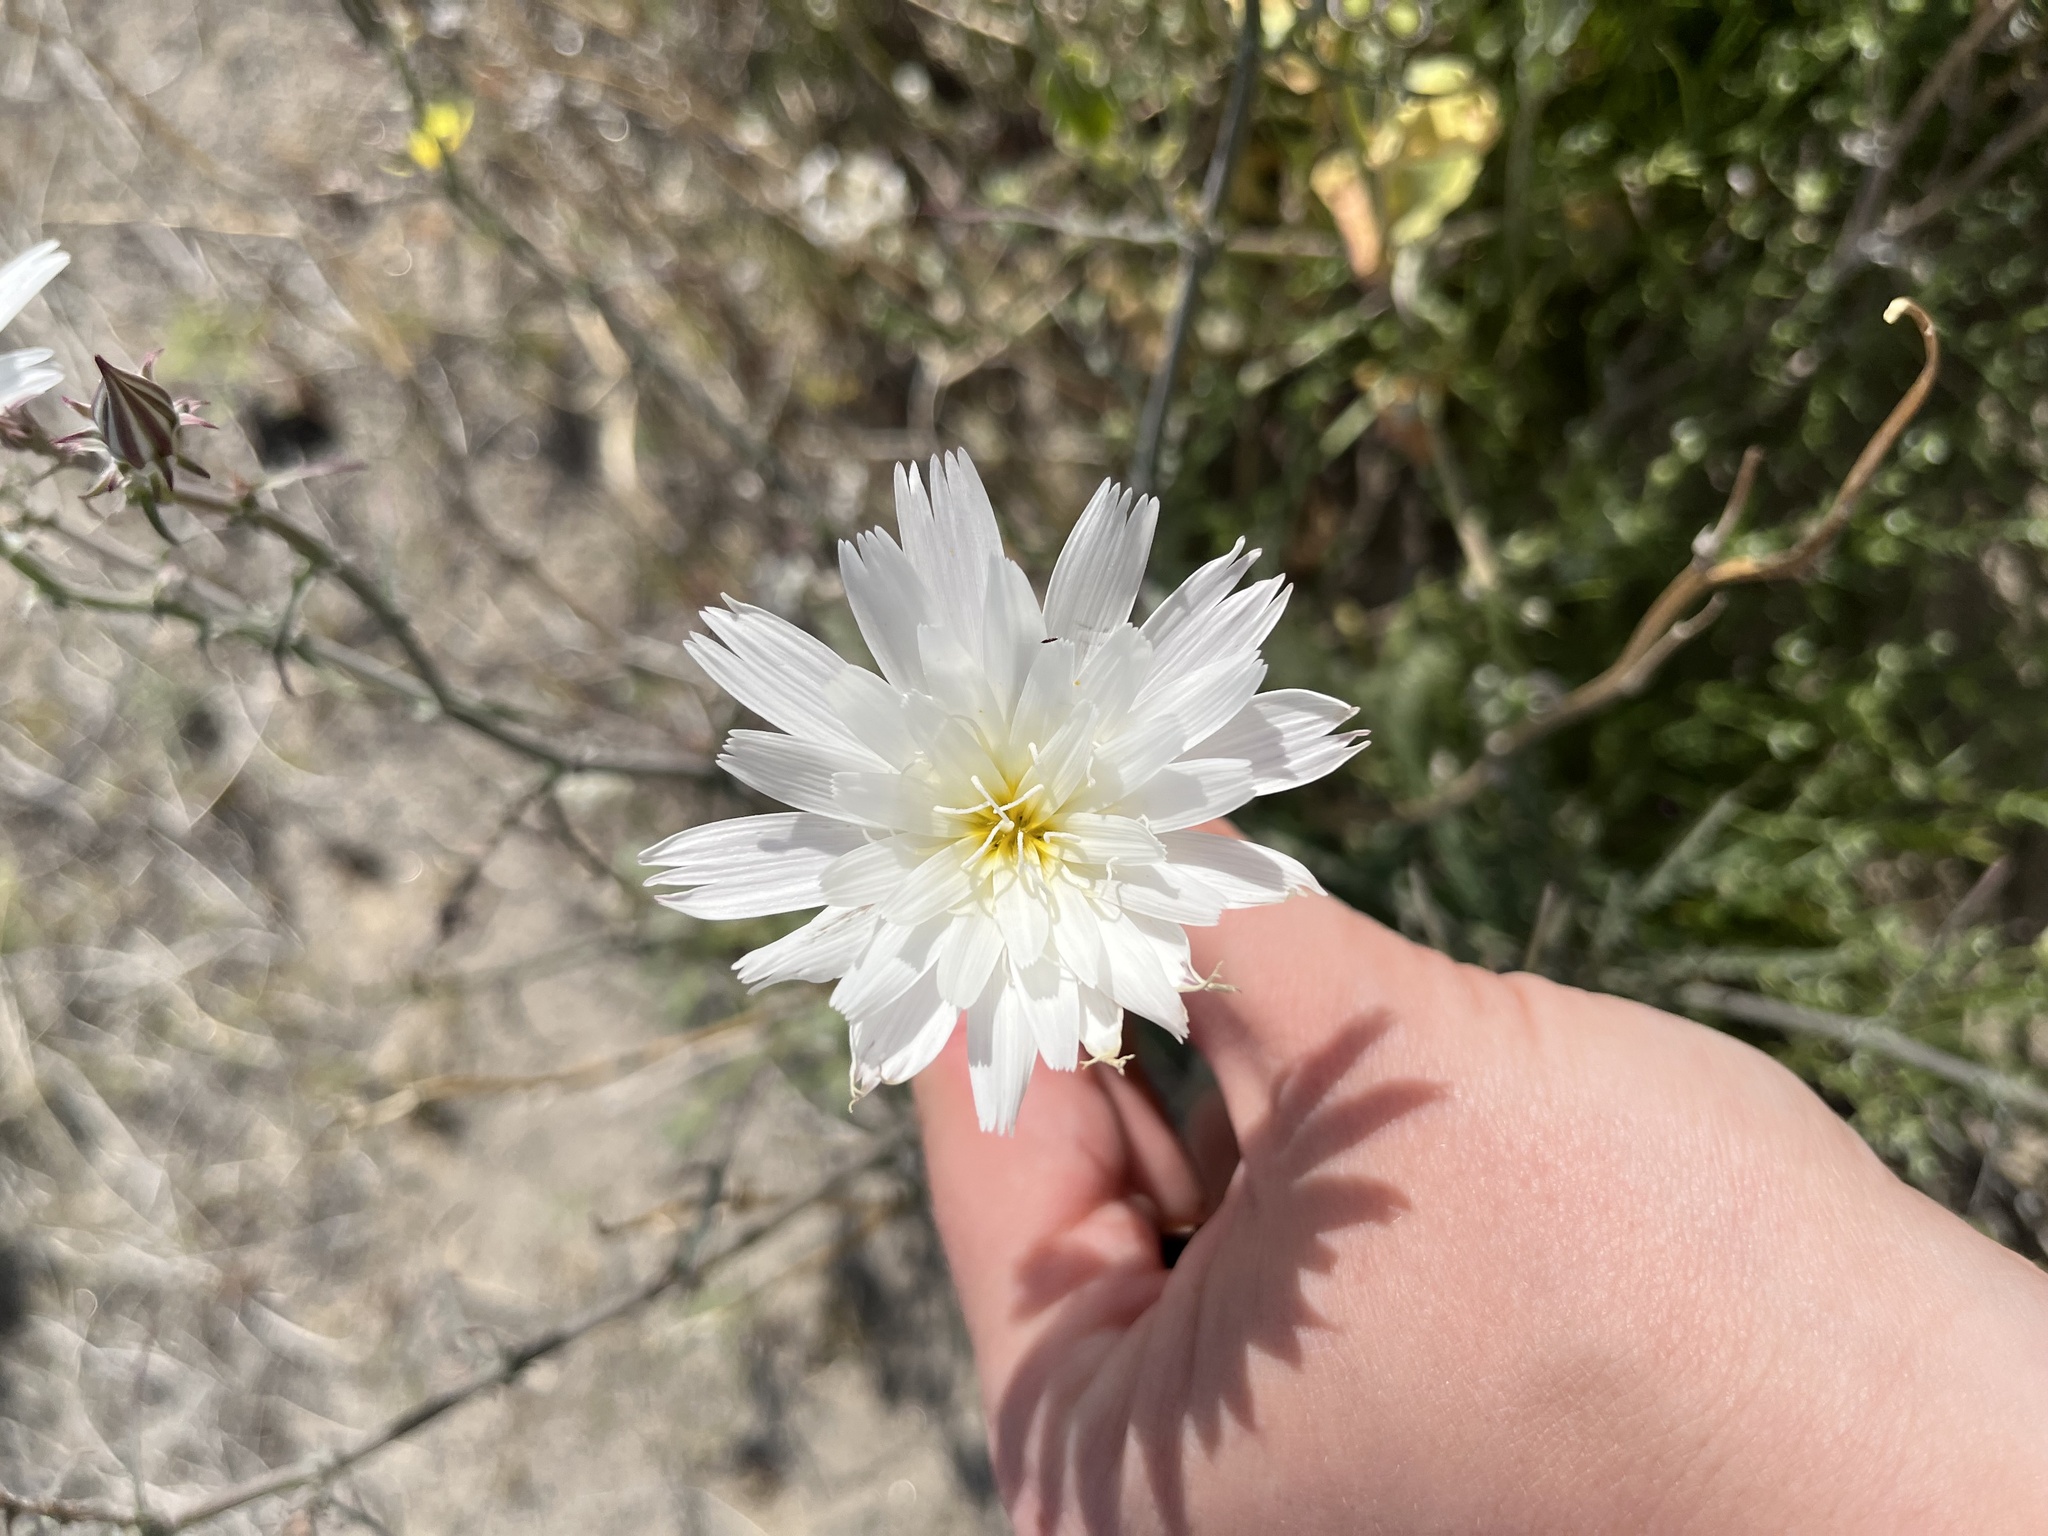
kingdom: Plantae
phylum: Tracheophyta
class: Magnoliopsida
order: Asterales
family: Asteraceae
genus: Rafinesquia
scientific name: Rafinesquia neomexicana
